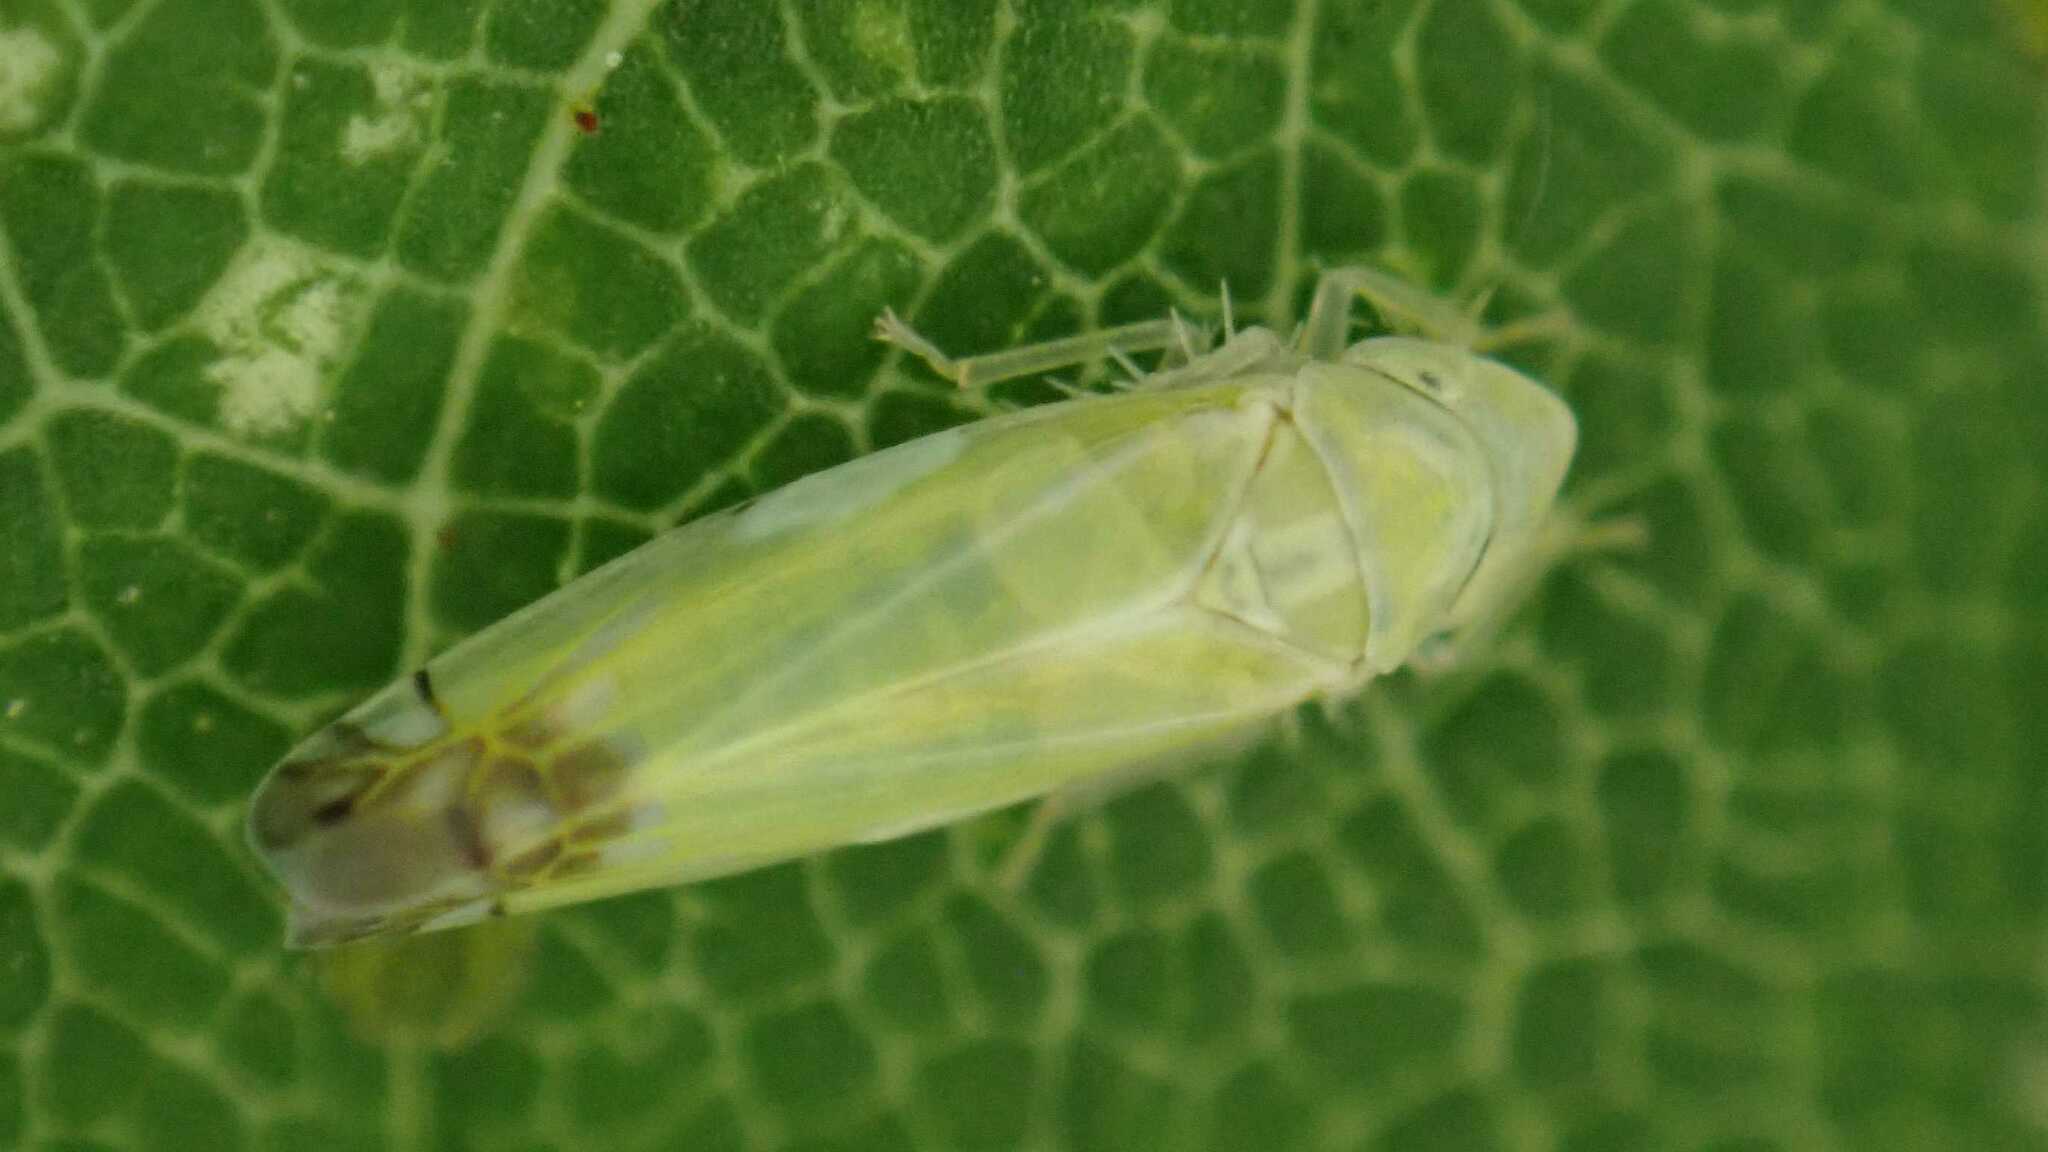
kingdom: Animalia
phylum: Arthropoda
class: Insecta
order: Hemiptera
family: Cicadellidae
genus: Zyginella
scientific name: Zyginella pulchra
